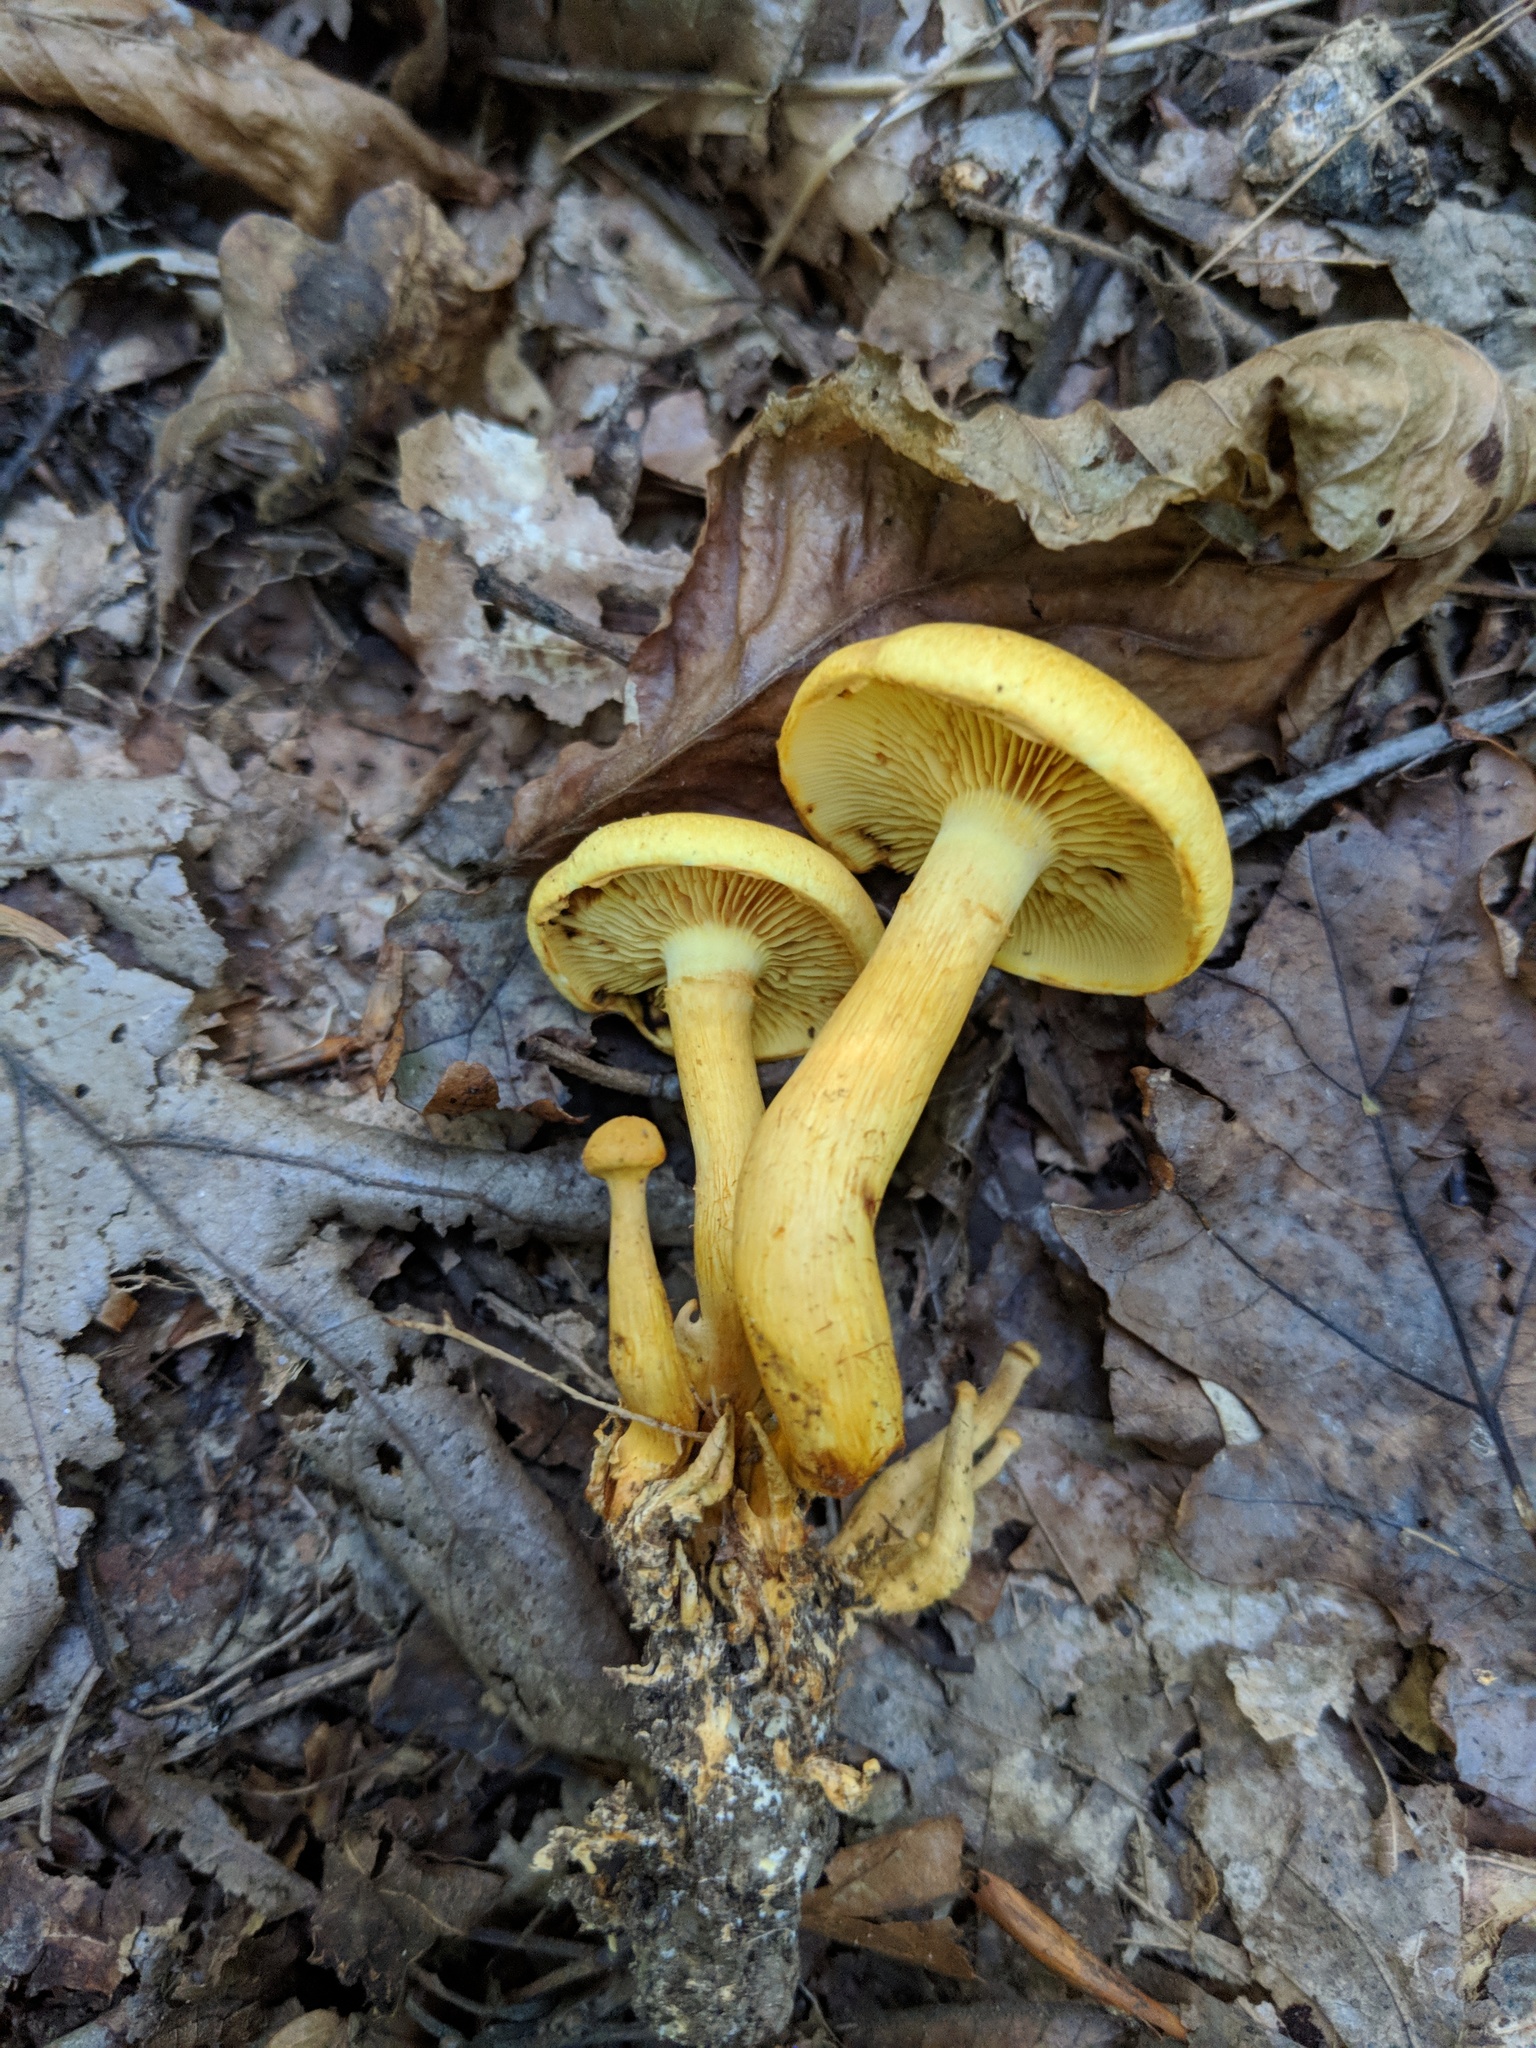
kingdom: Fungi
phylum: Basidiomycota
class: Agaricomycetes
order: Agaricales
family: Hymenogastraceae
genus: Gymnopilus
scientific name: Gymnopilus luteus
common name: Yellow gymnopilus
